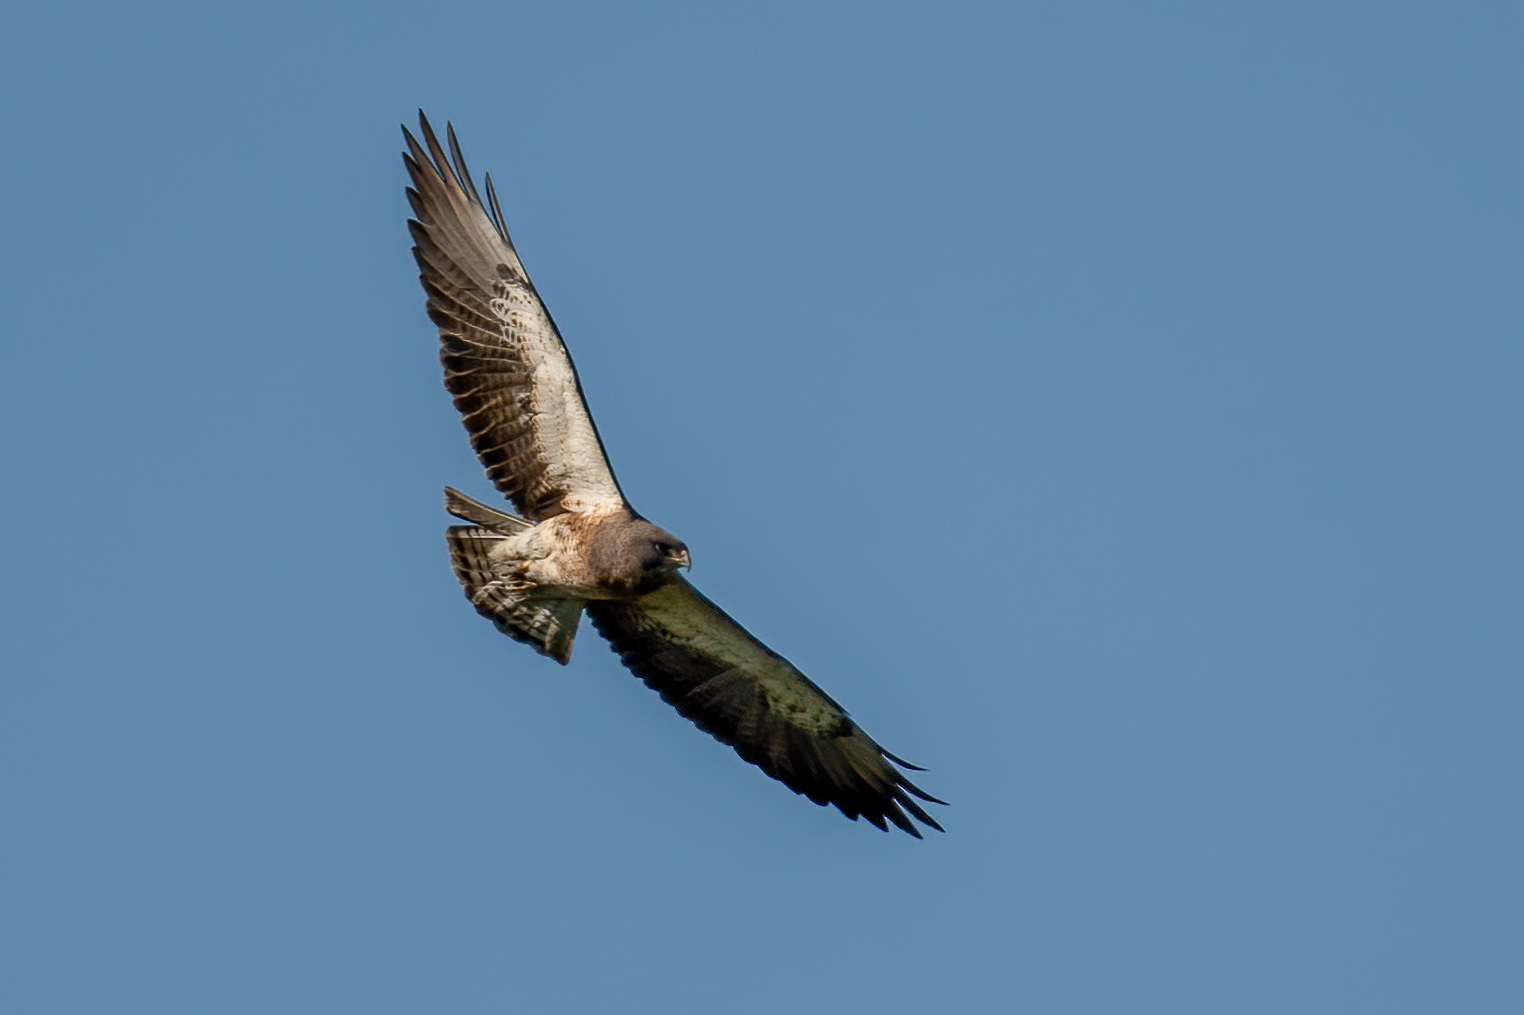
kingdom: Animalia
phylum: Chordata
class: Aves
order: Accipitriformes
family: Accipitridae
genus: Buteo
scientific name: Buteo swainsoni
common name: Swainson's hawk
